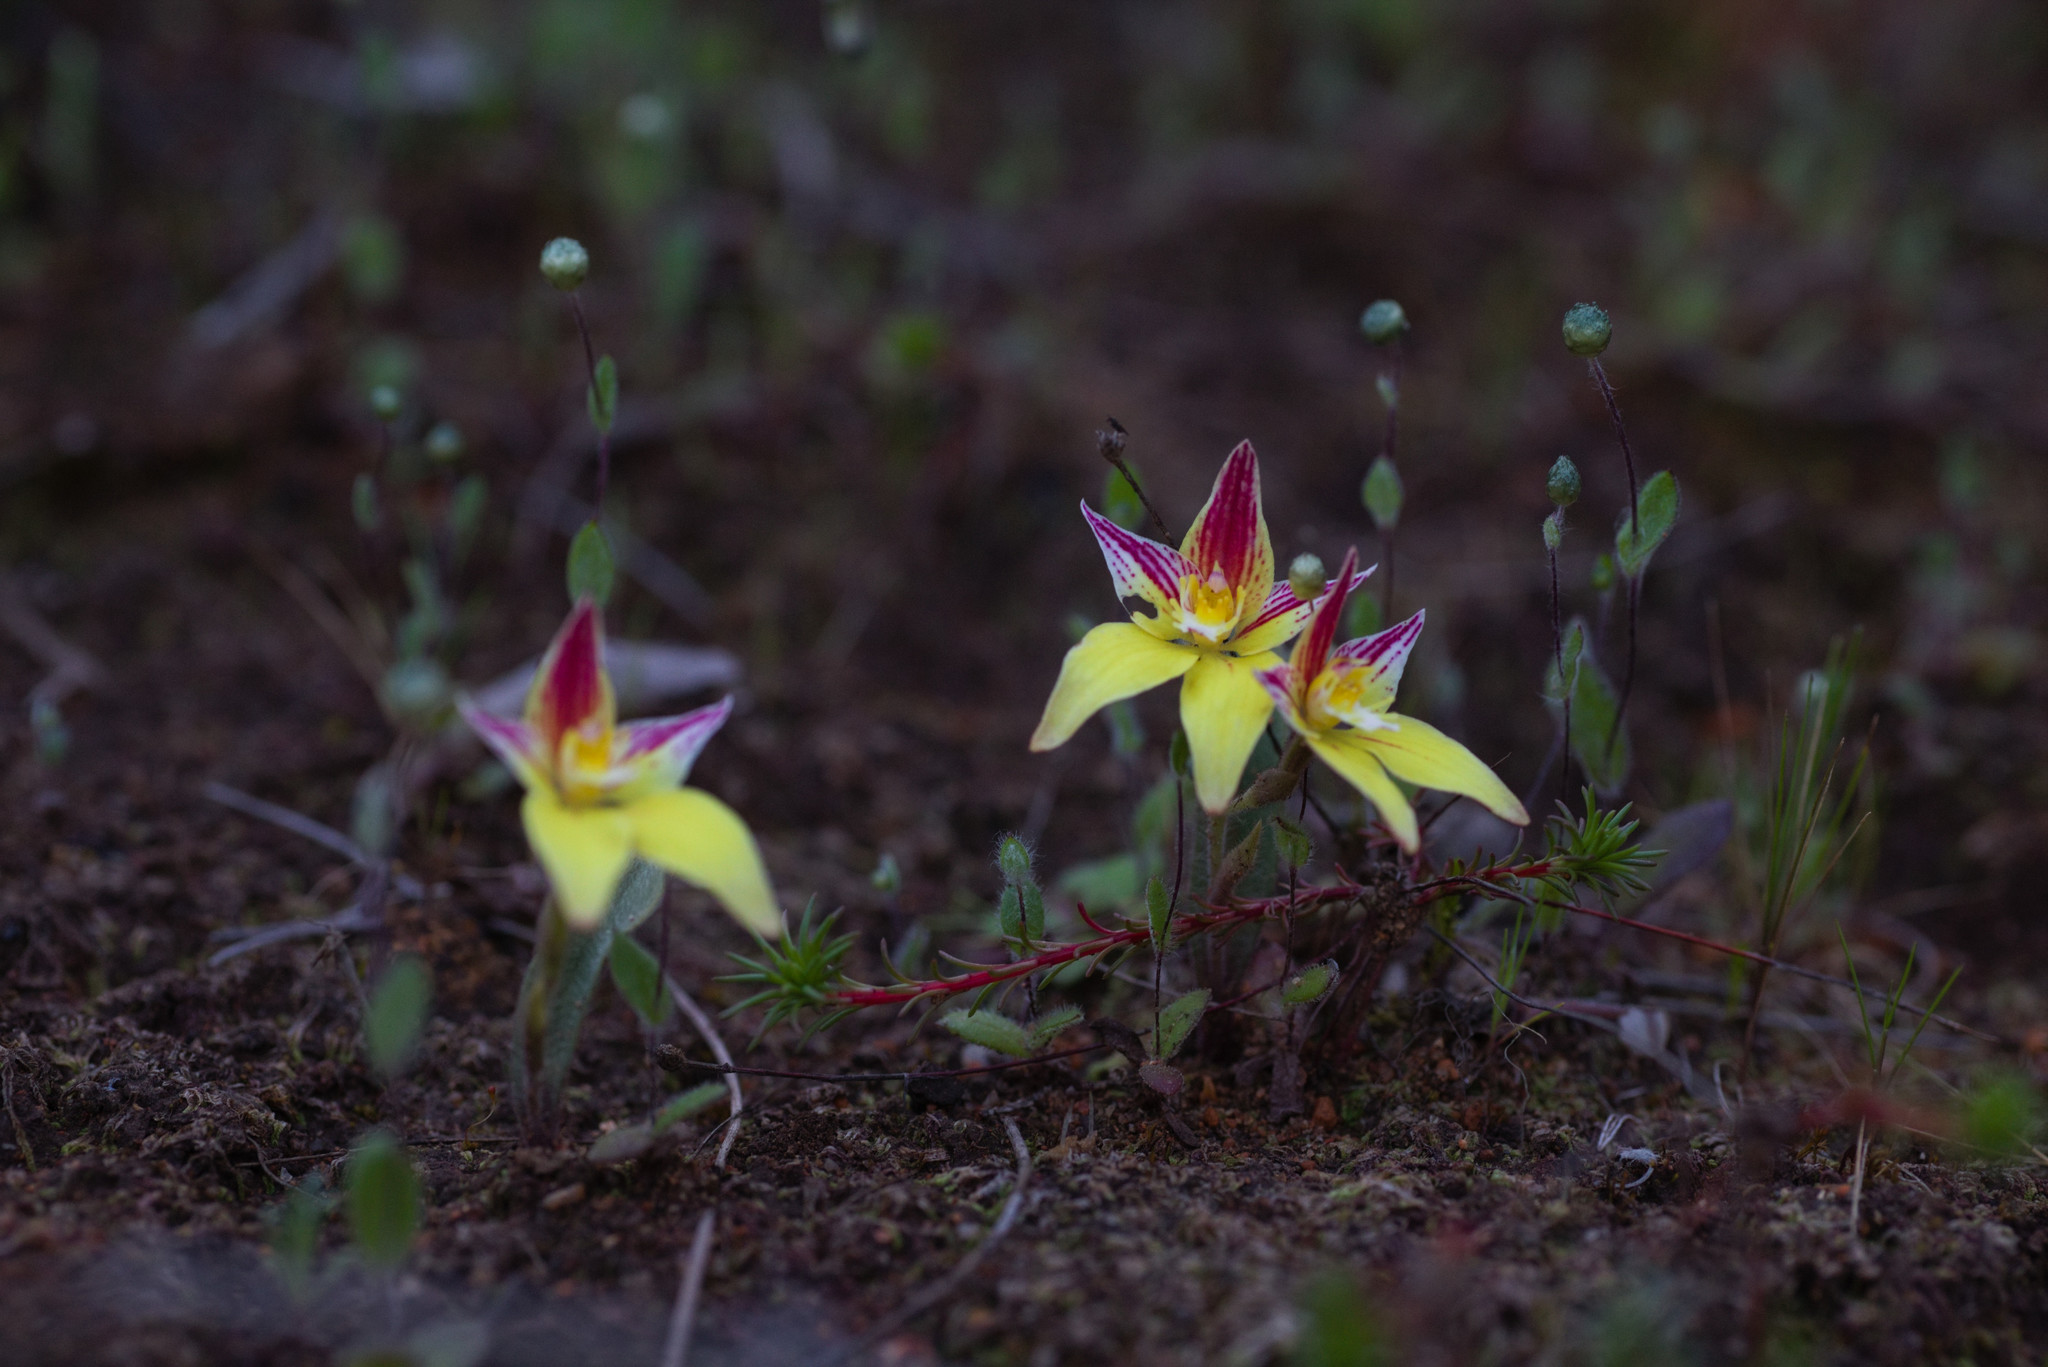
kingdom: Plantae
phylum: Tracheophyta
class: Liliopsida
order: Asparagales
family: Orchidaceae
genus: Caladenia
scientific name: Caladenia flava
